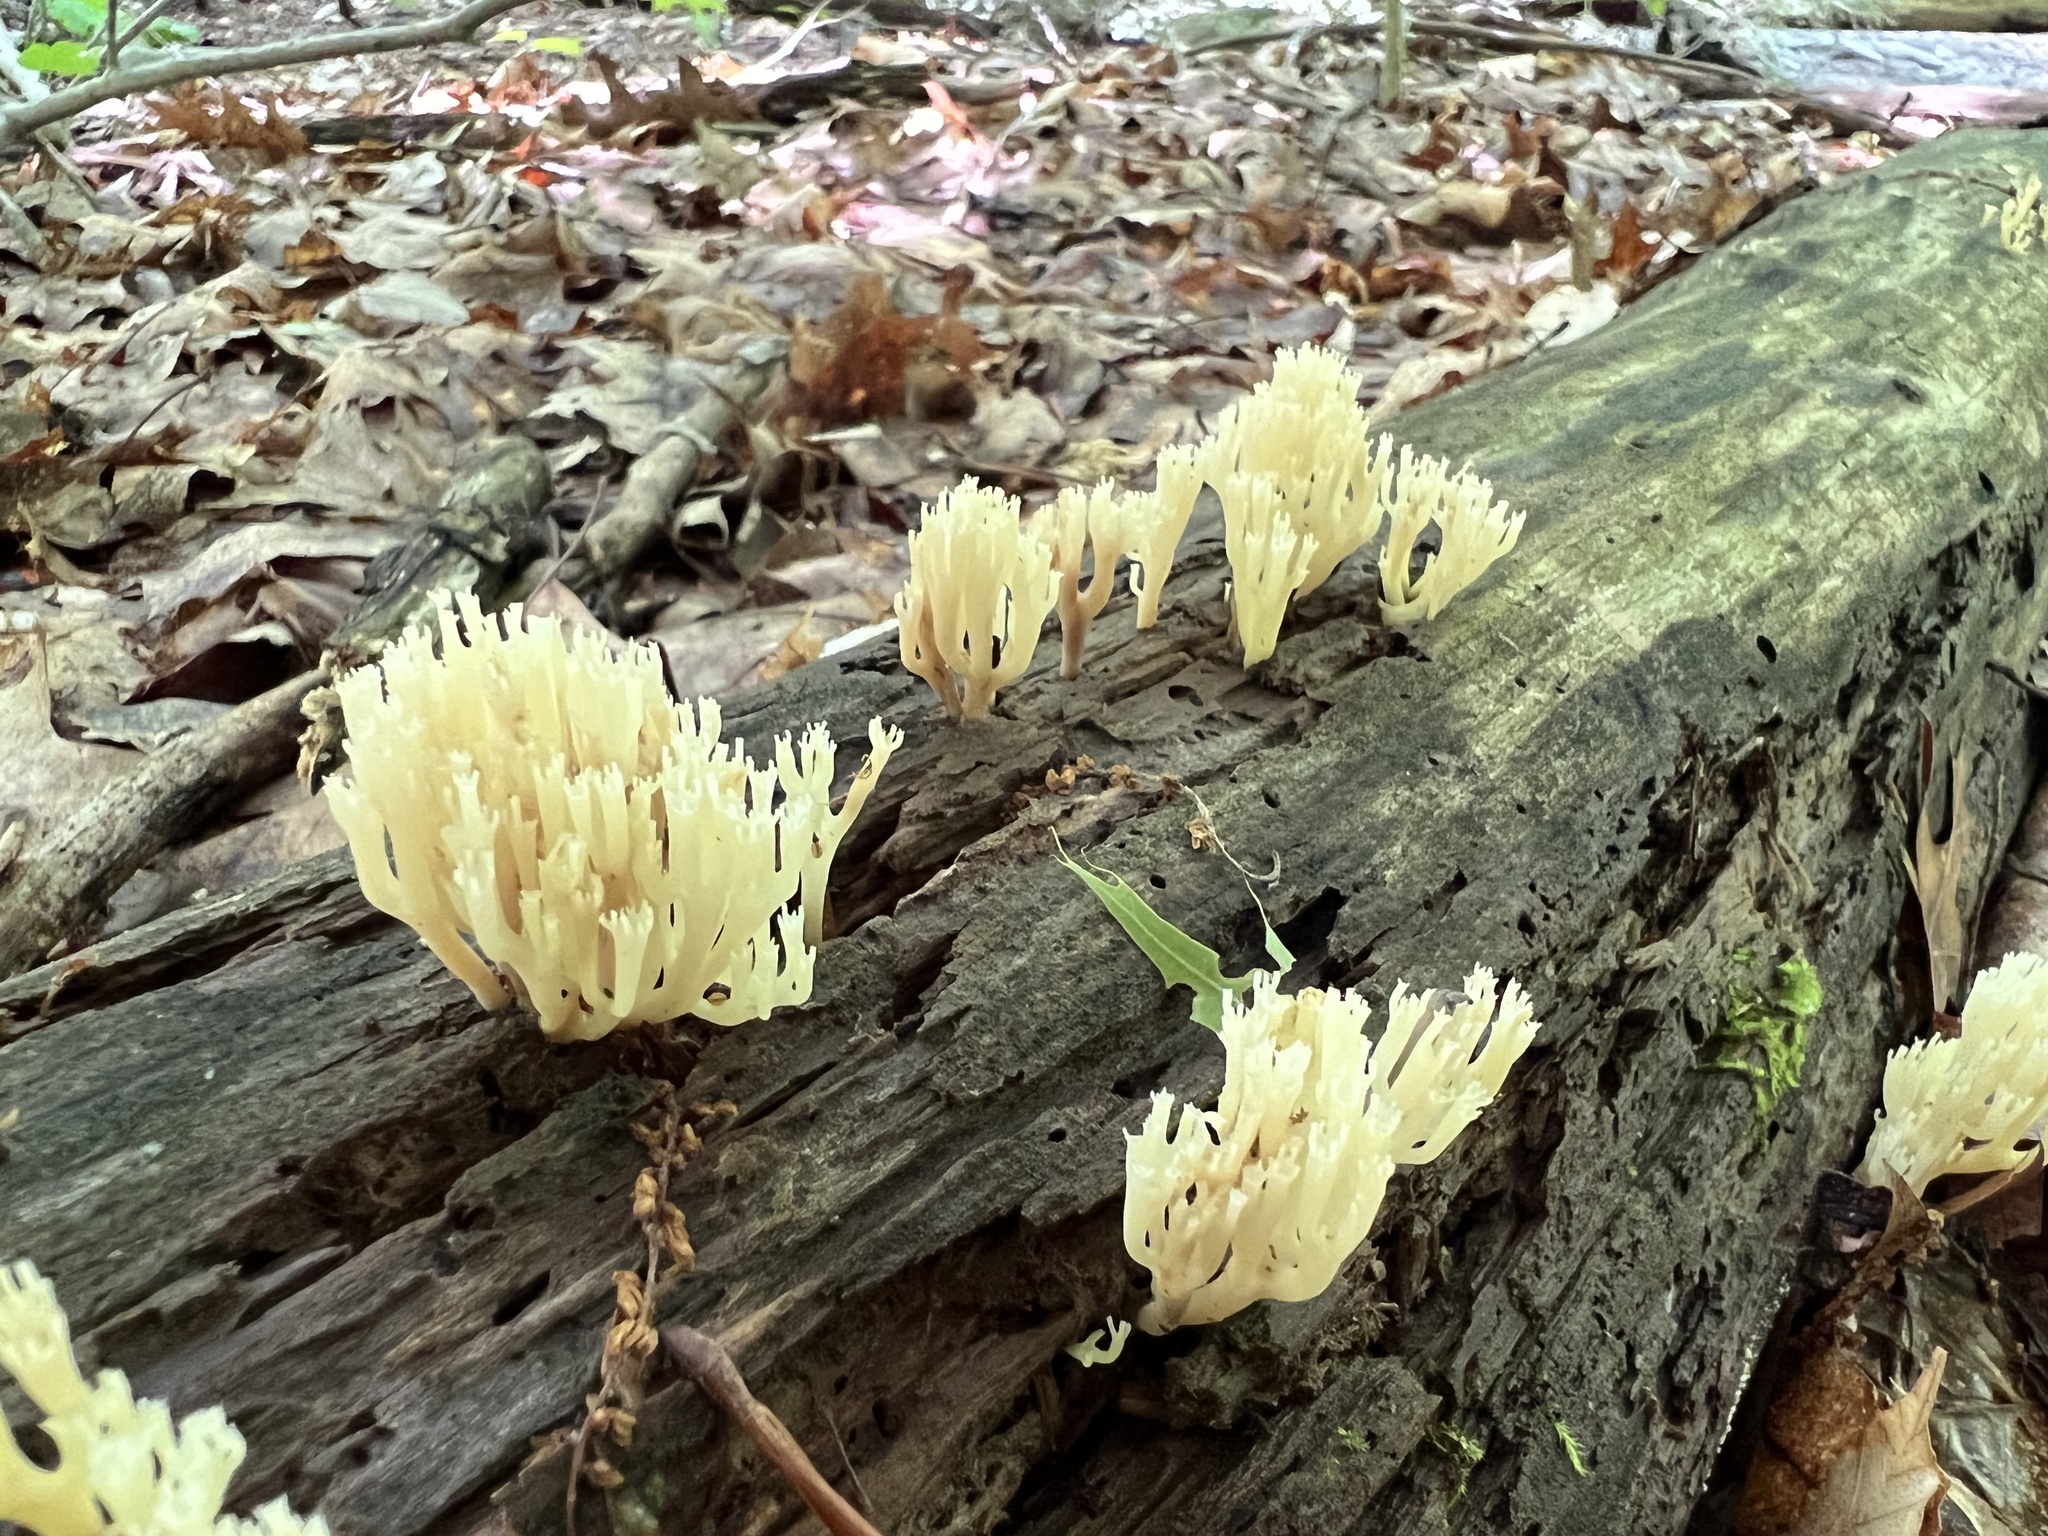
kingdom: Fungi
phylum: Basidiomycota
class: Agaricomycetes
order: Russulales
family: Auriscalpiaceae
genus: Artomyces
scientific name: Artomyces pyxidatus
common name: Crown-tipped coral fungus
